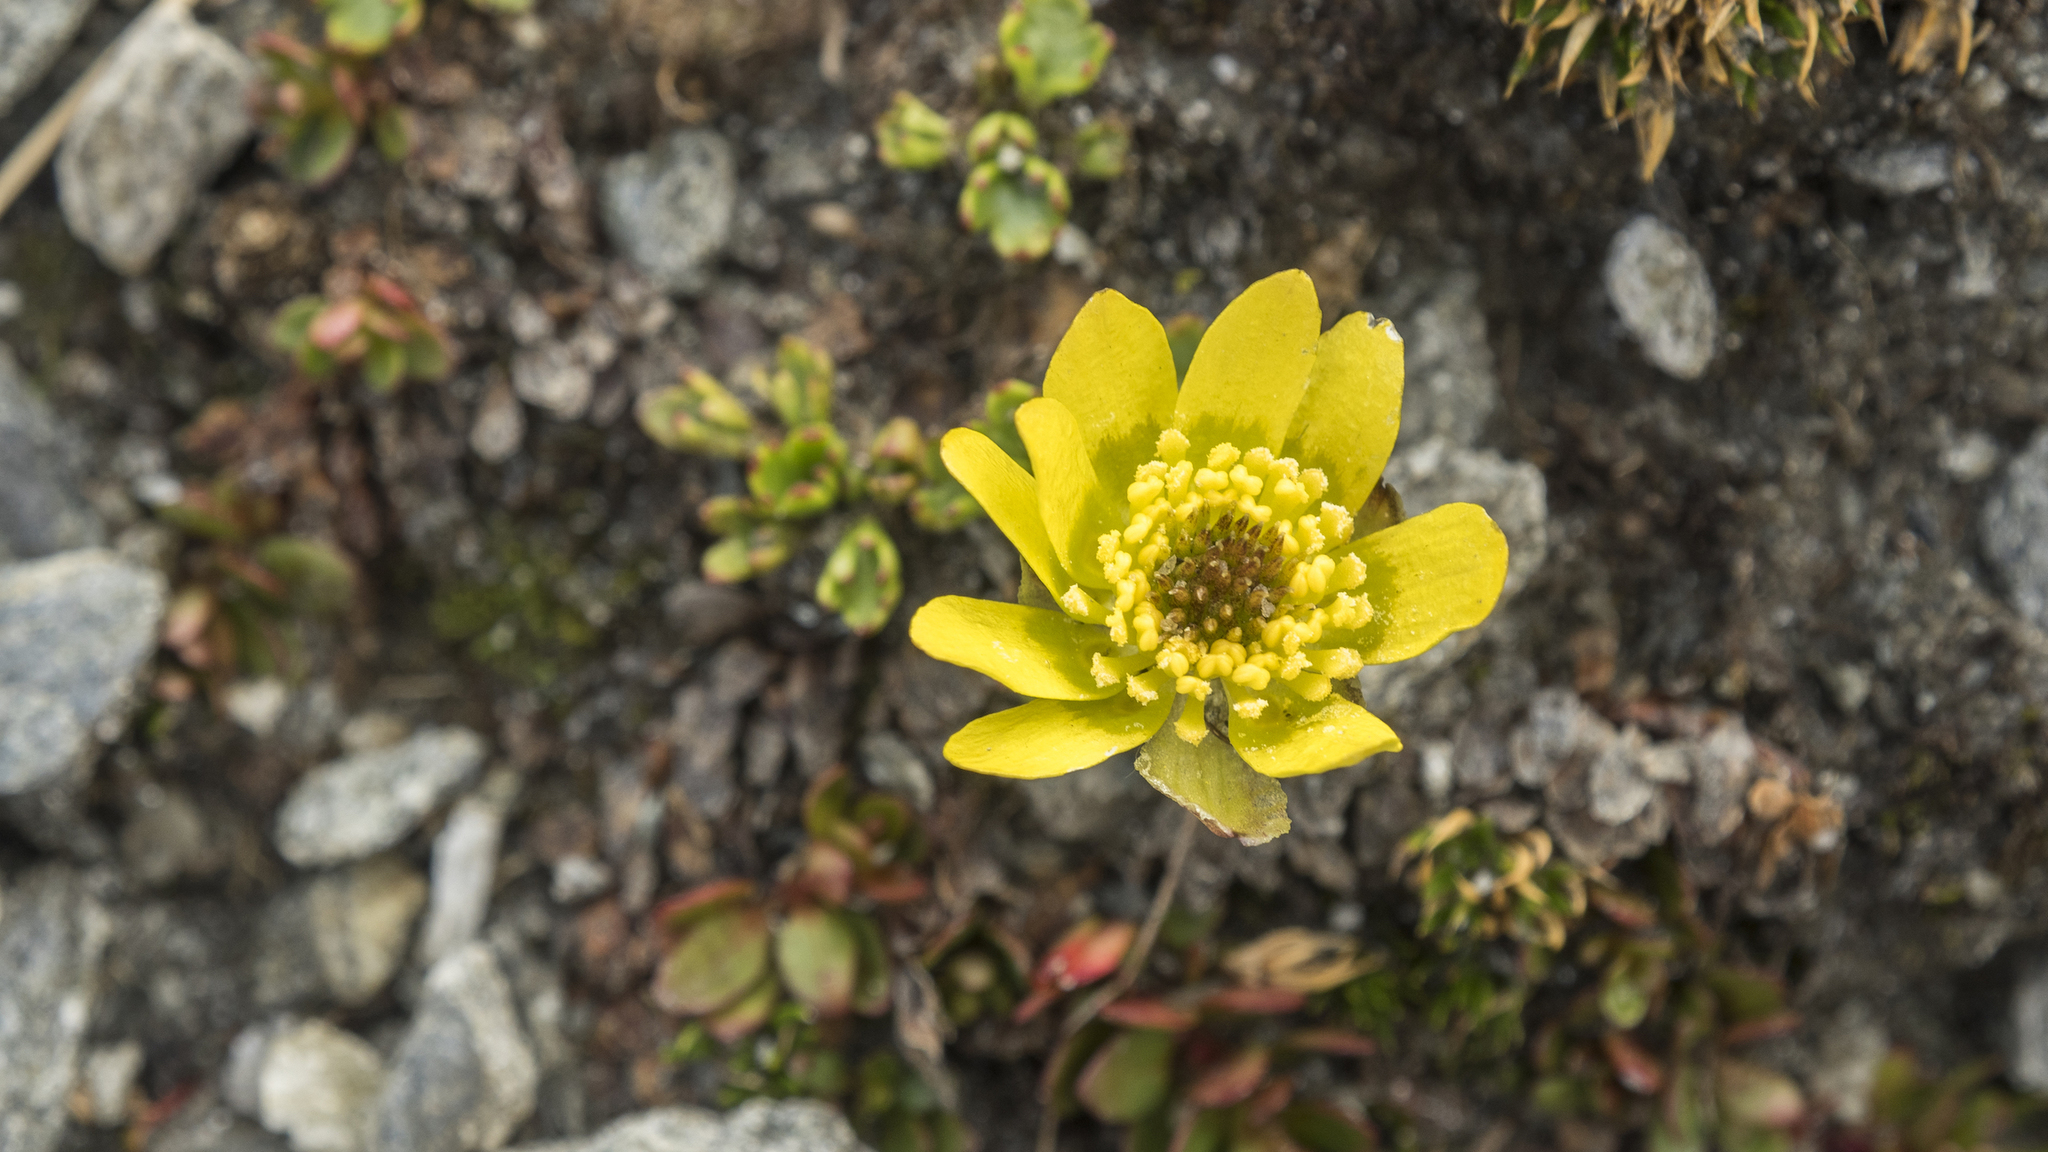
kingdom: Plantae
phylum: Tracheophyta
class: Magnoliopsida
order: Ranunculales
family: Ranunculaceae
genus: Ranunculus
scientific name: Ranunculus pachyrrhizus
